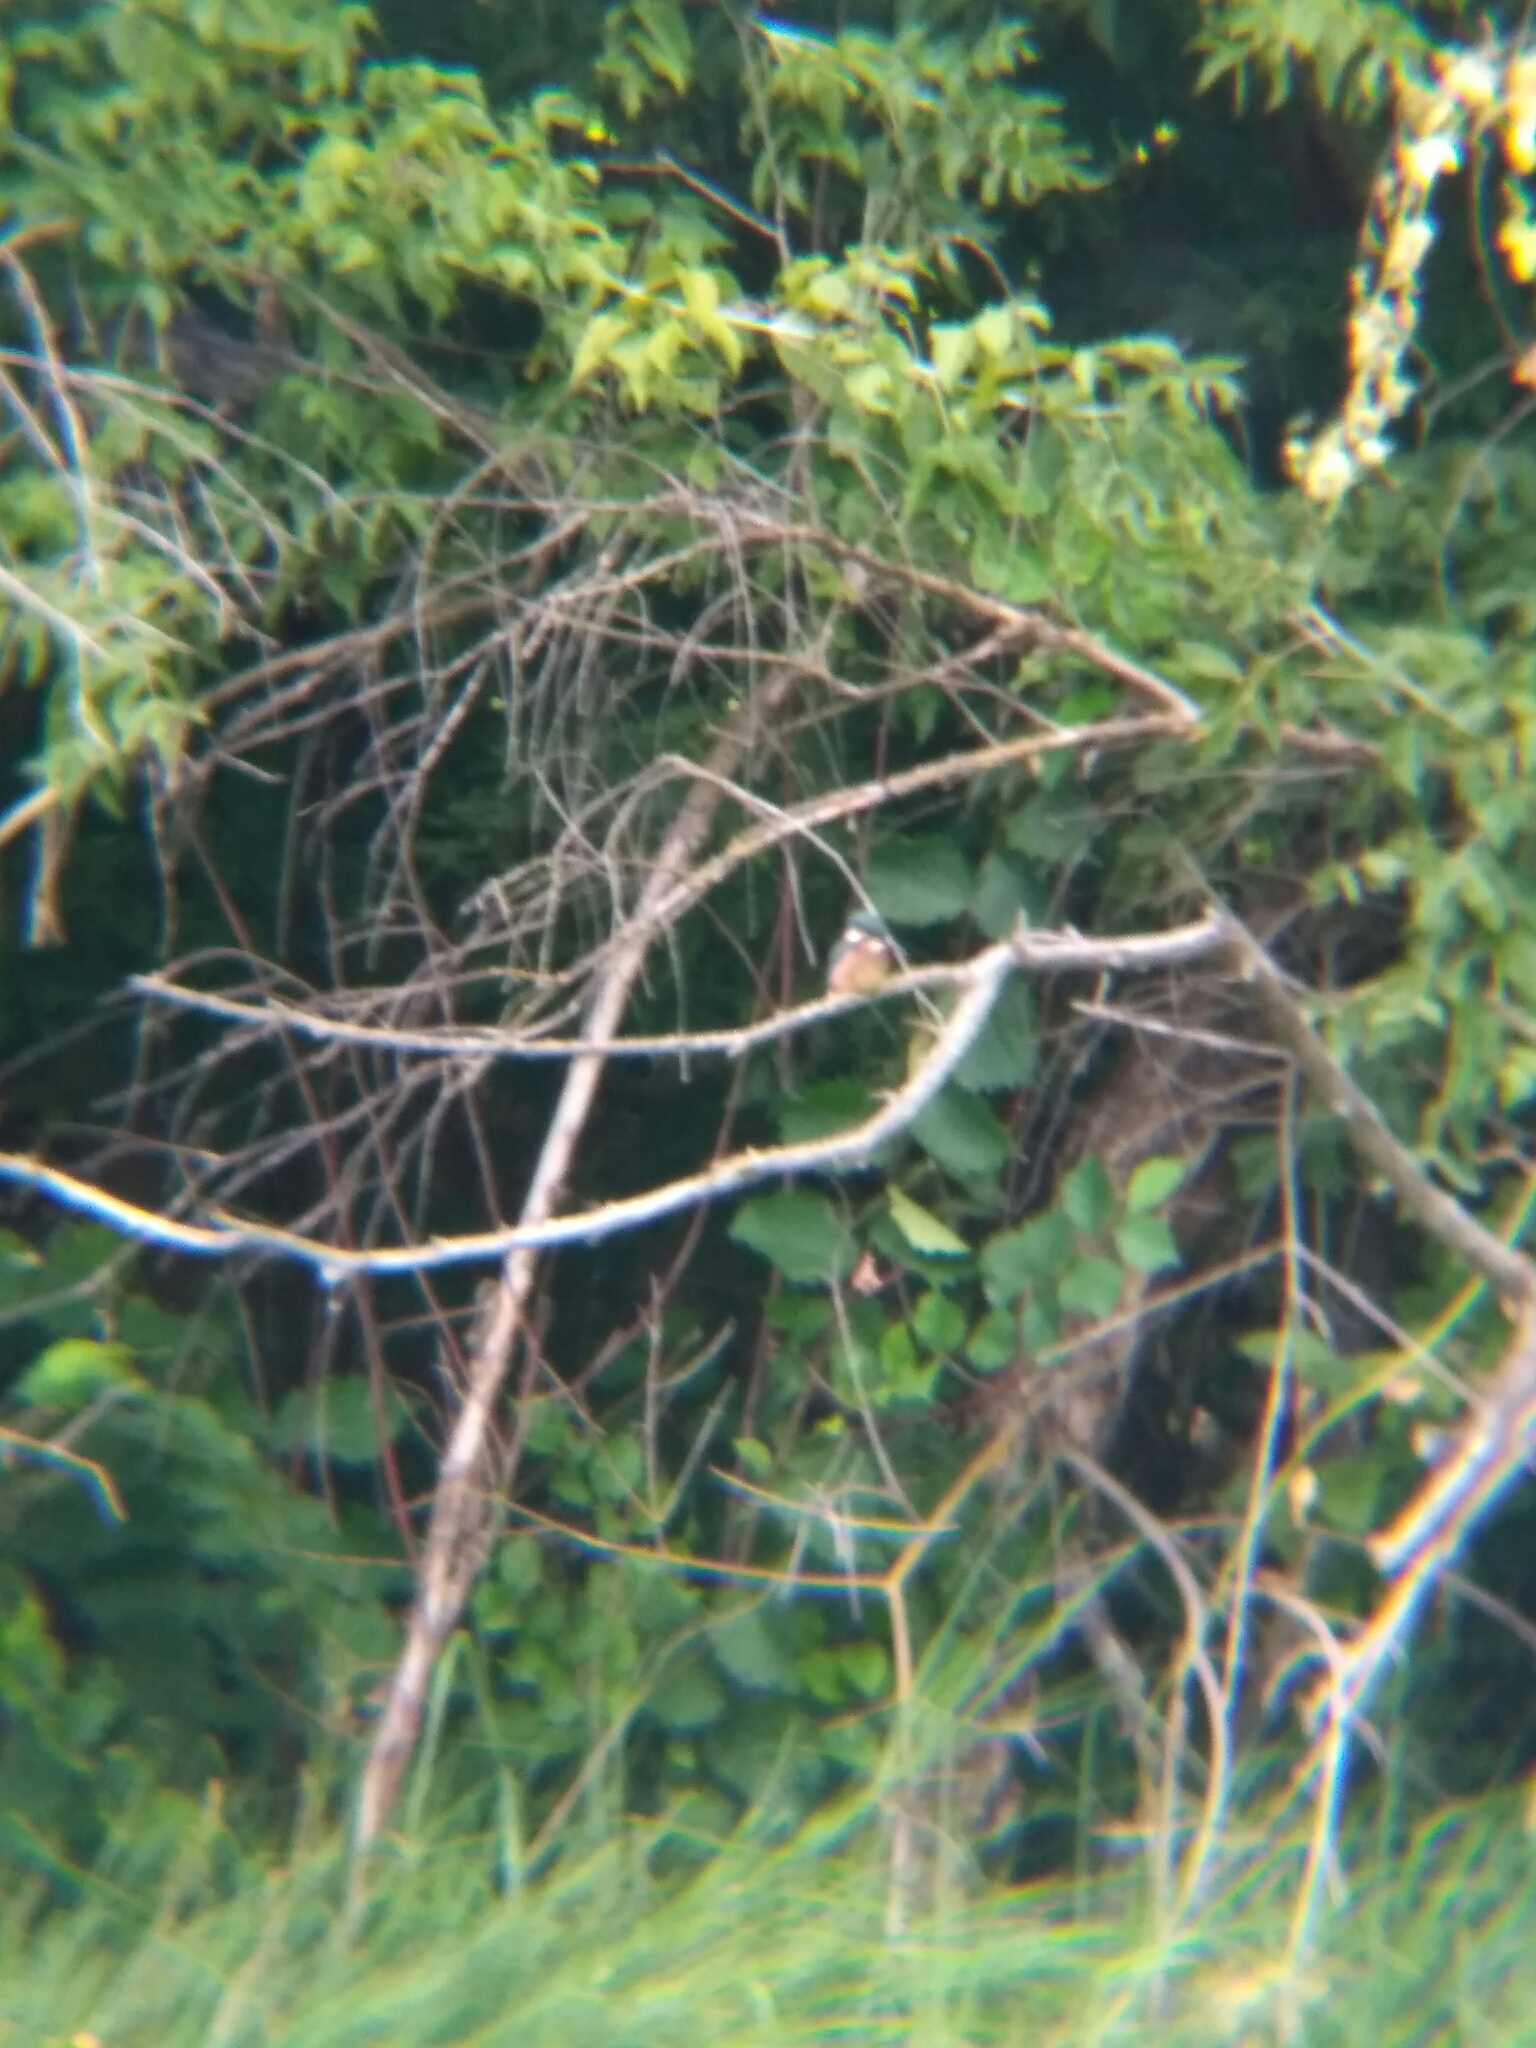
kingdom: Animalia
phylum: Chordata
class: Aves
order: Coraciiformes
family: Alcedinidae
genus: Alcedo
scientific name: Alcedo atthis
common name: Common kingfisher
